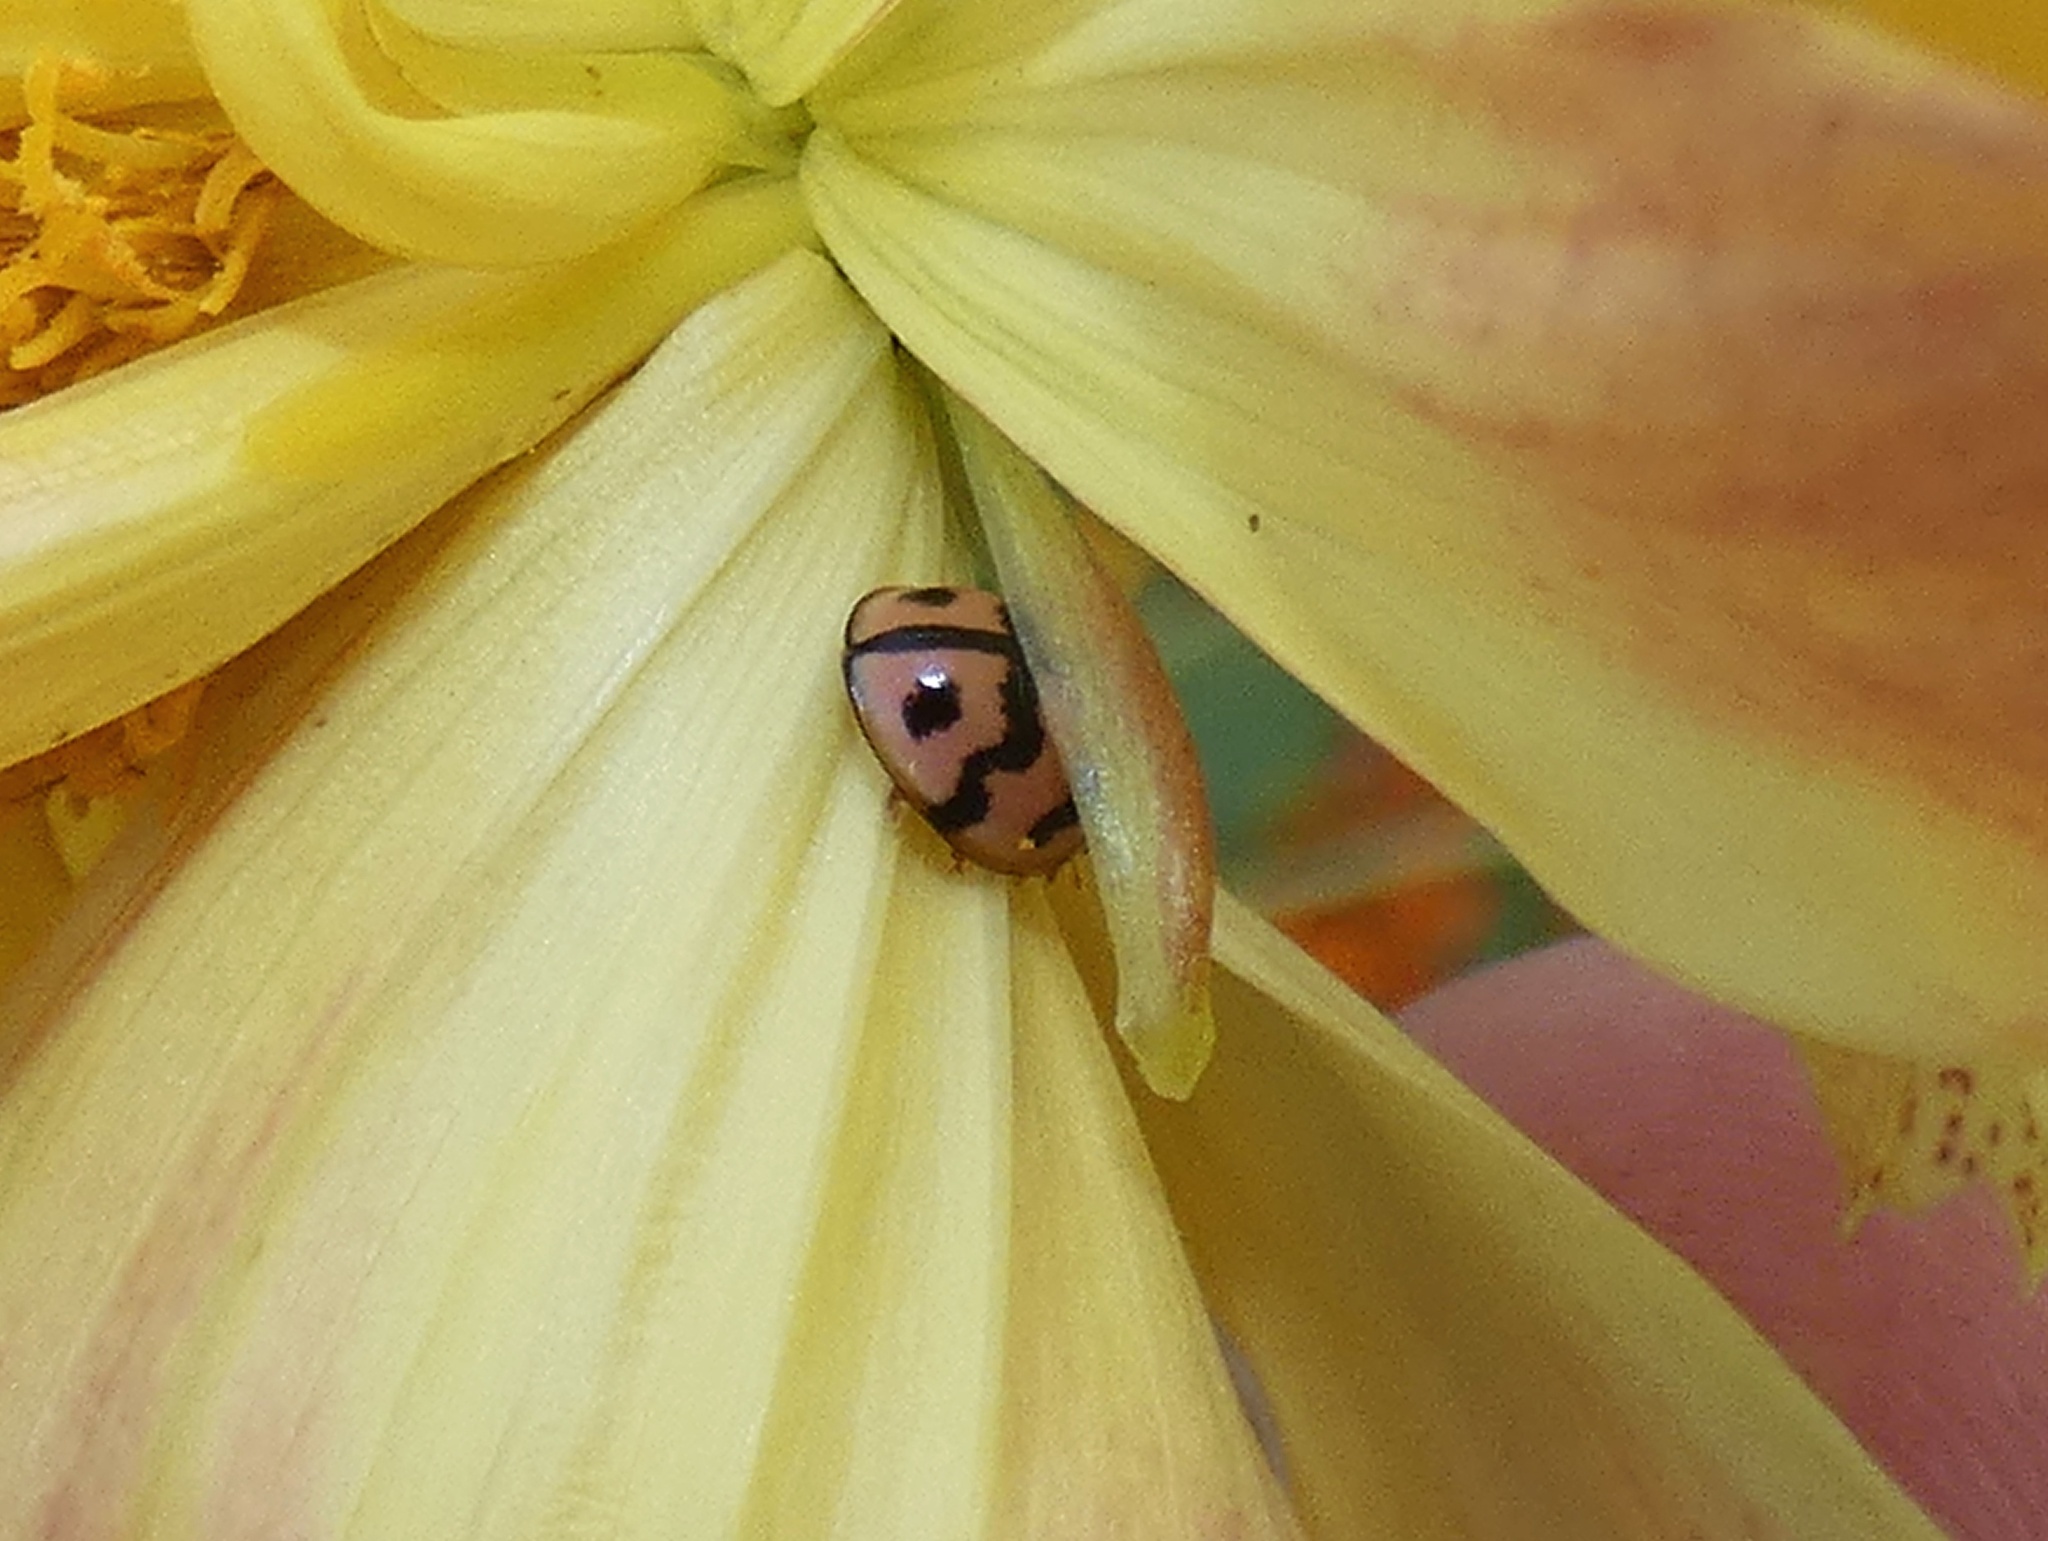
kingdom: Animalia
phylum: Arthropoda
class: Insecta
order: Coleoptera
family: Coccinellidae
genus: Cheilomenes
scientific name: Cheilomenes sexmaculata
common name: Ladybird beetle
